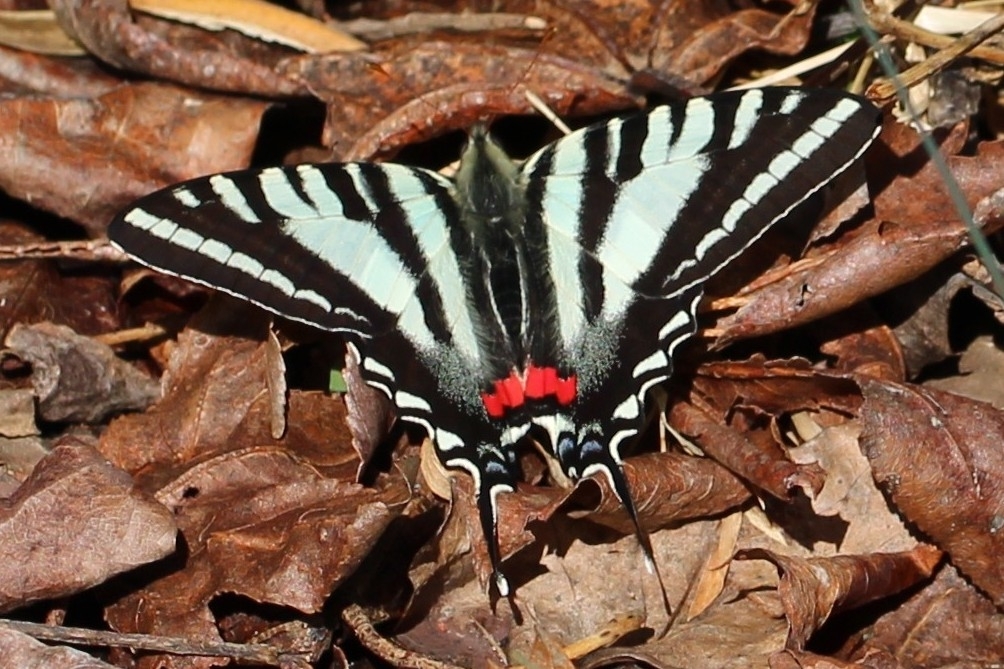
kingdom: Animalia
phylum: Arthropoda
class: Insecta
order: Lepidoptera
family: Papilionidae
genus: Protographium
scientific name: Protographium marcellus
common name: Zebra swallowtail
